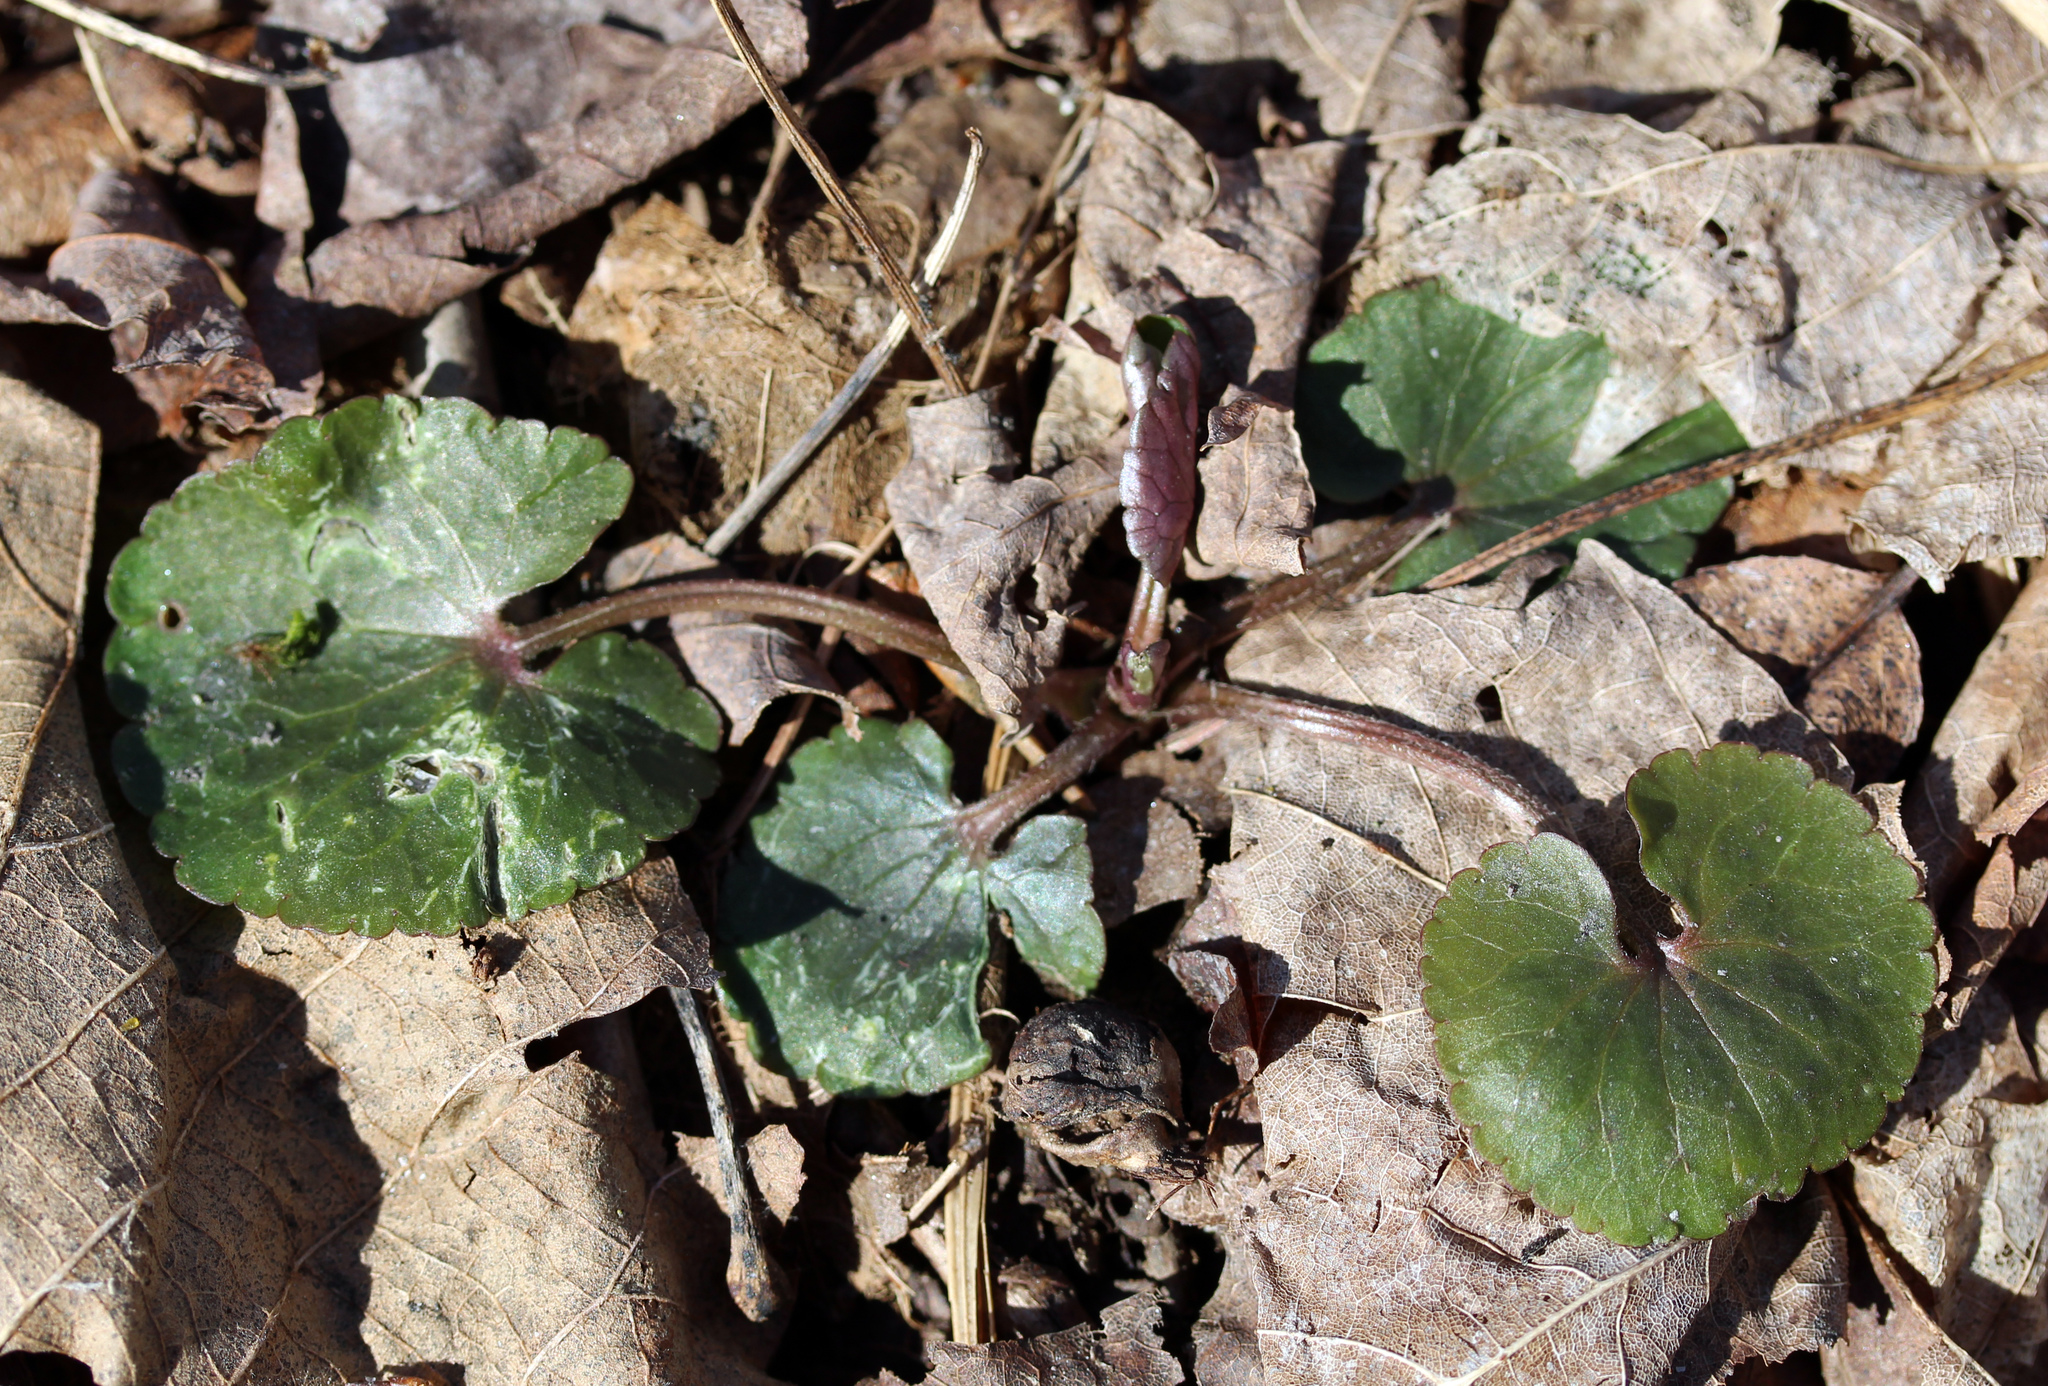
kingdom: Plantae
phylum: Tracheophyta
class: Magnoliopsida
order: Ranunculales
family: Ranunculaceae
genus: Ranunculus
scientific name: Ranunculus abortivus
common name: Early wood buttercup
